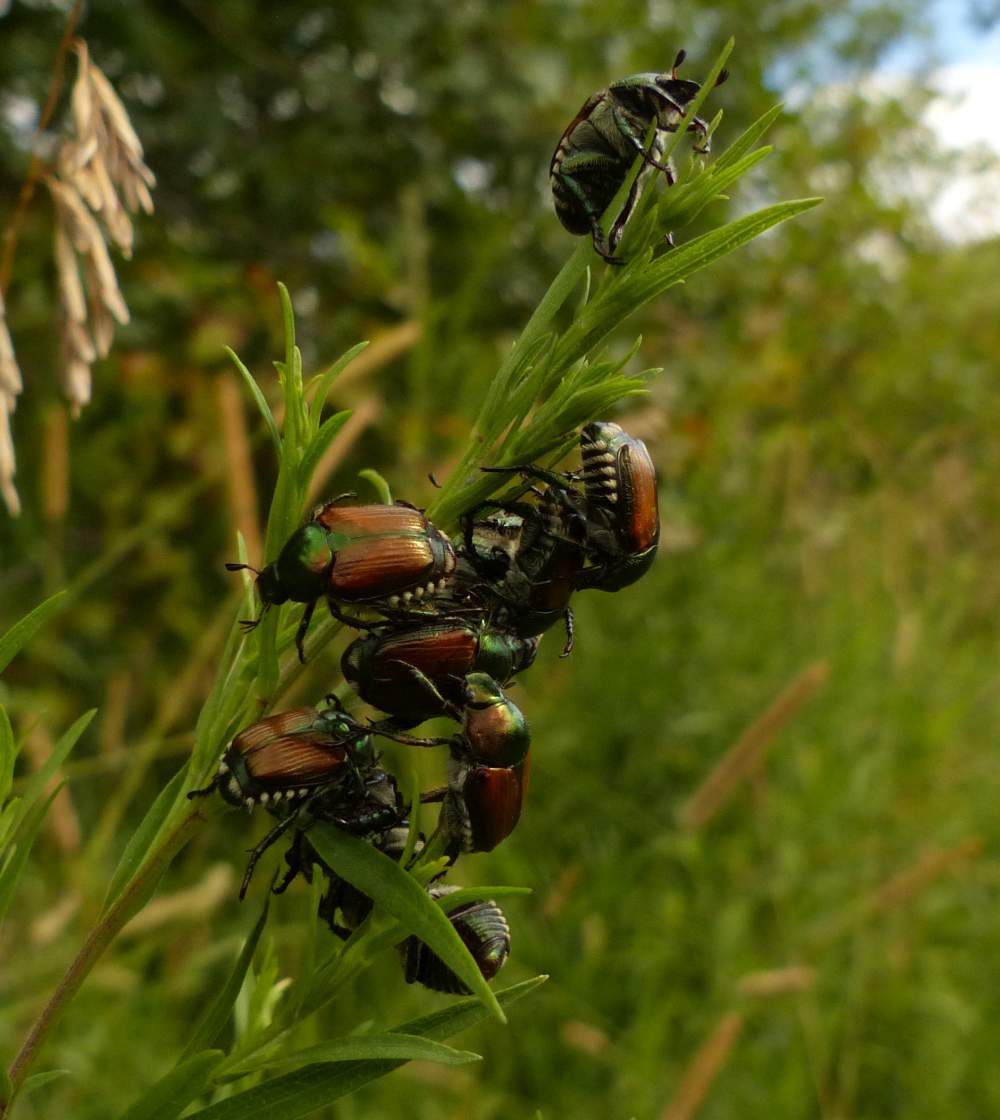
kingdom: Animalia
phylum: Arthropoda
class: Insecta
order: Coleoptera
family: Scarabaeidae
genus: Popillia
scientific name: Popillia japonica
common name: Japanese beetle
